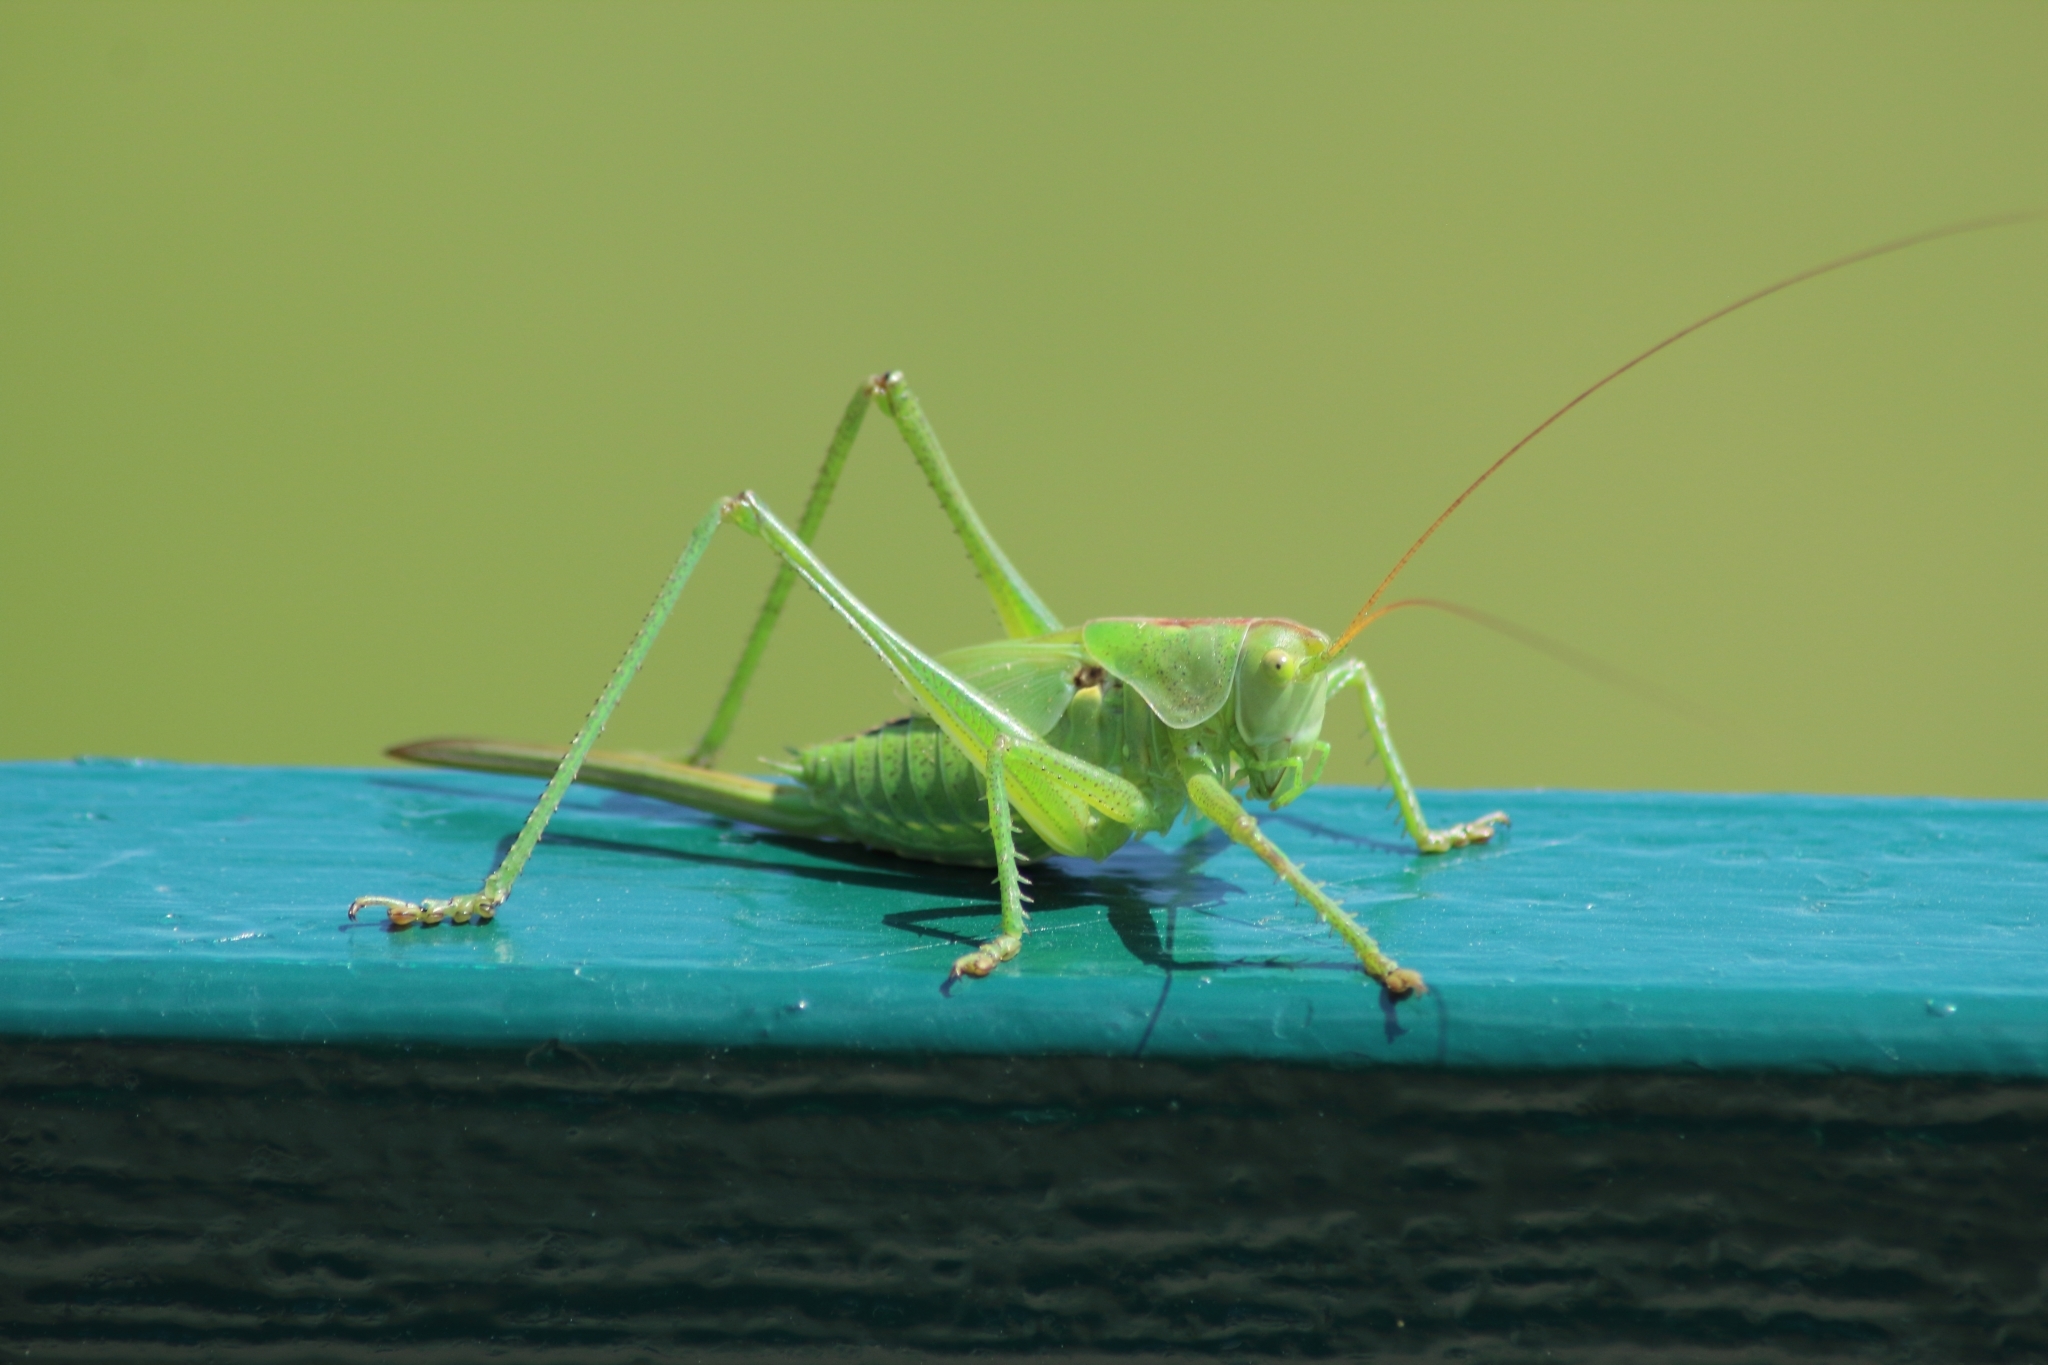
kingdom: Animalia
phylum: Arthropoda
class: Insecta
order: Orthoptera
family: Tettigoniidae
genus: Tettigonia
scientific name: Tettigonia viridissima
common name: Great green bush-cricket
